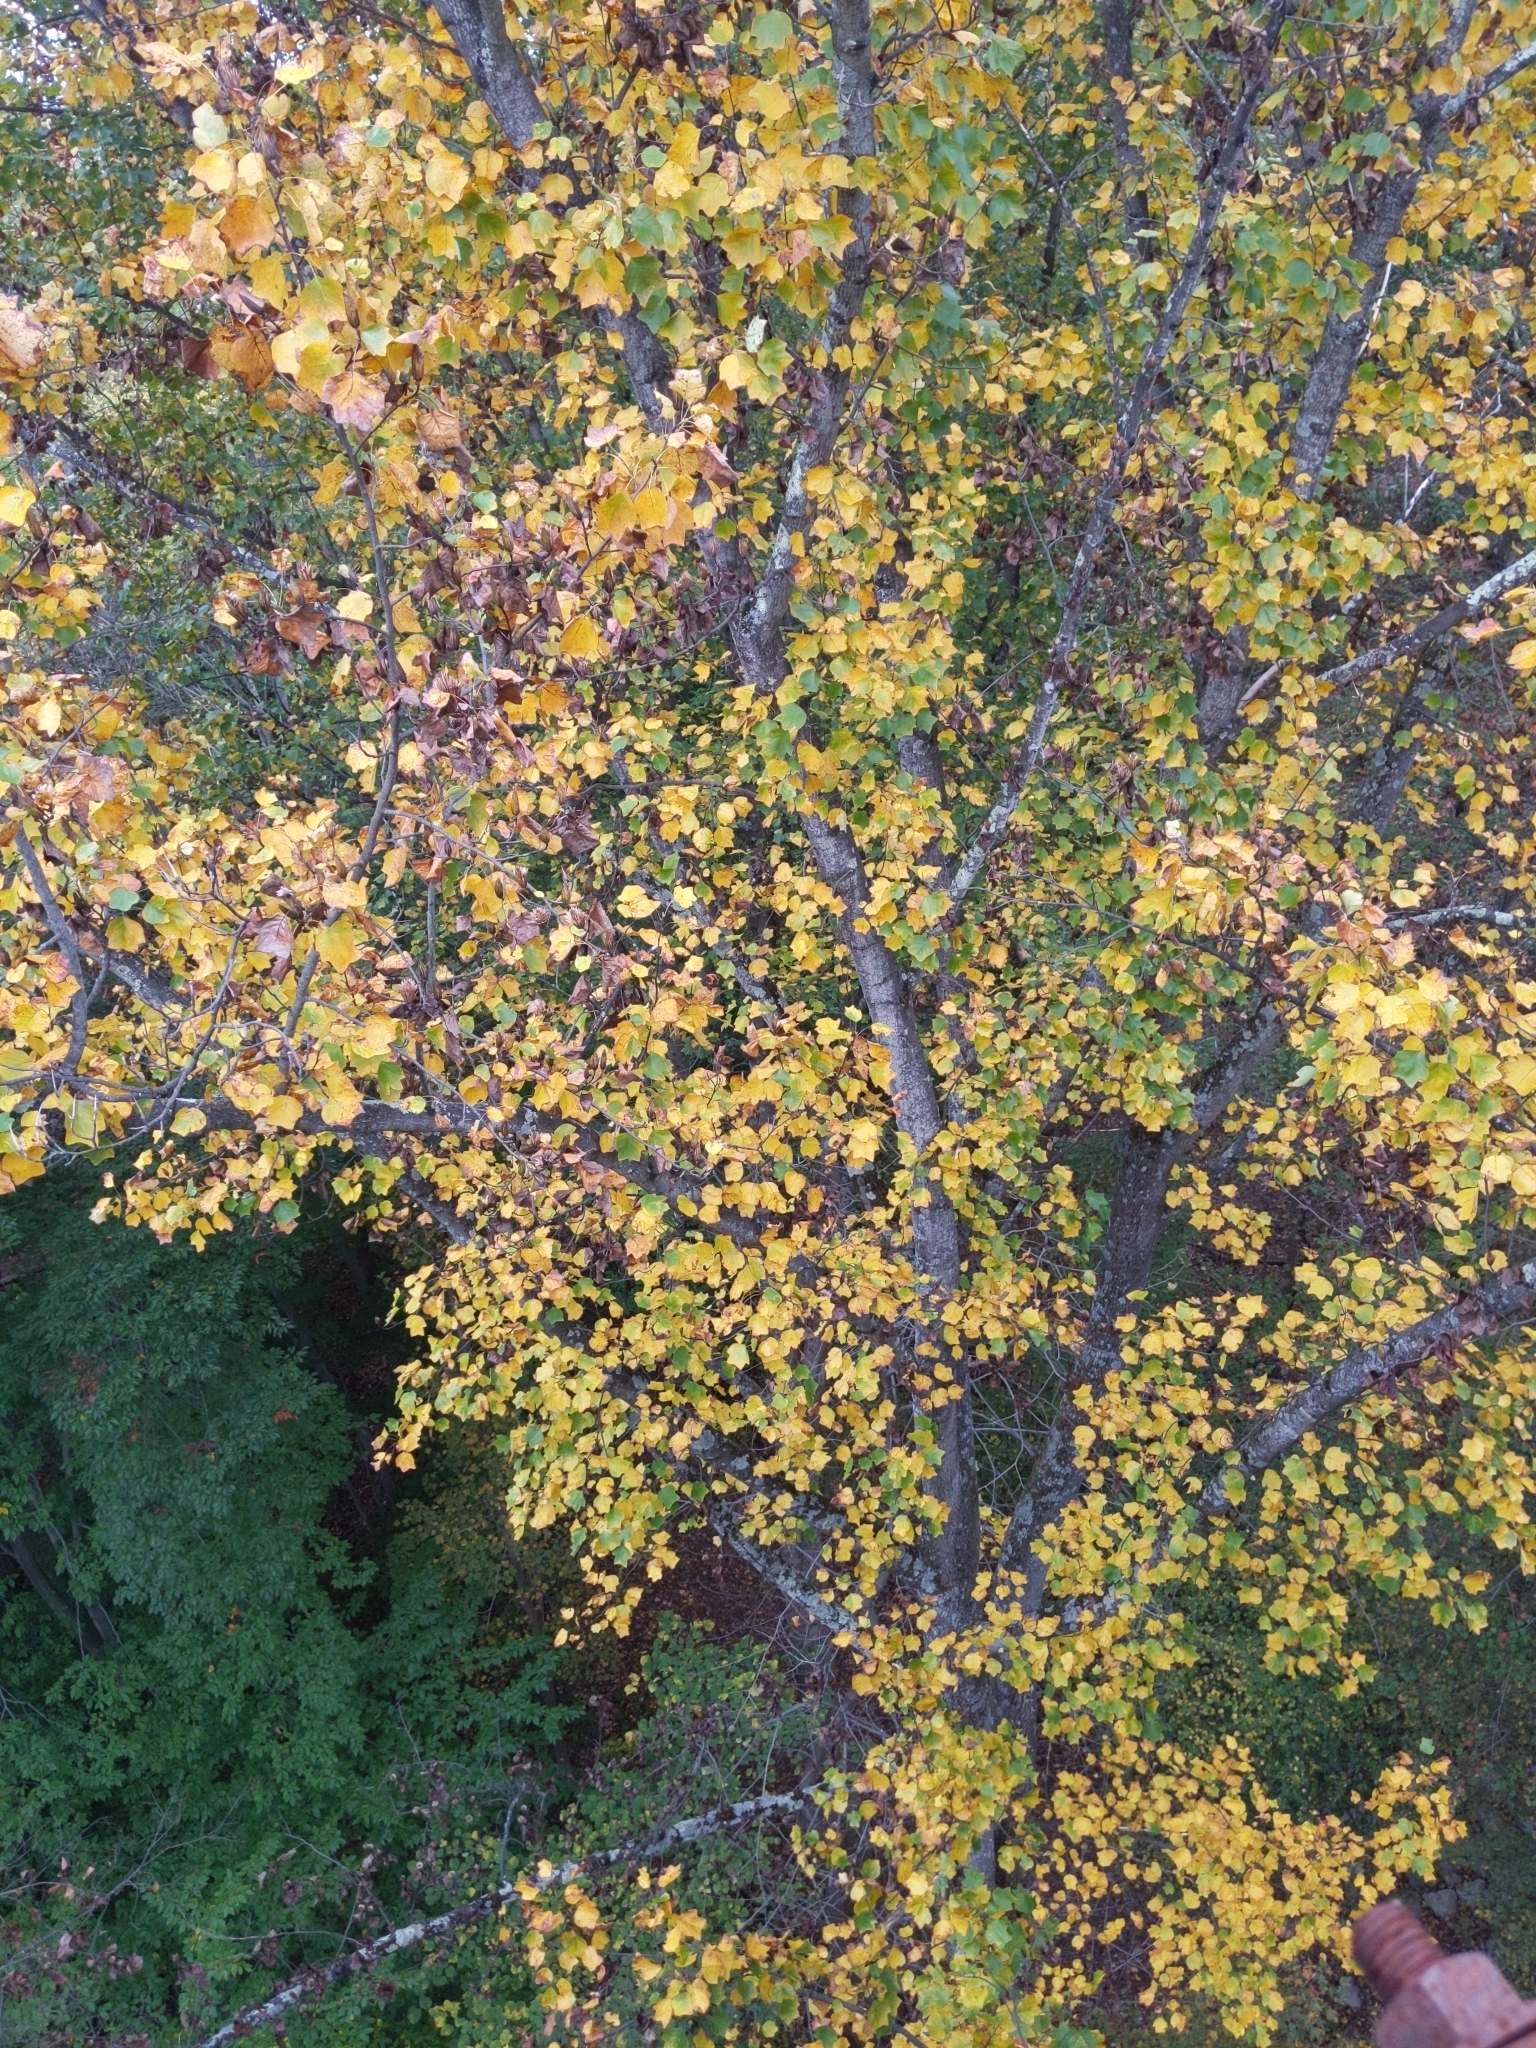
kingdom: Plantae
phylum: Tracheophyta
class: Magnoliopsida
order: Magnoliales
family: Magnoliaceae
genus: Liriodendron
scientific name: Liriodendron tulipifera
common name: Tulip tree
